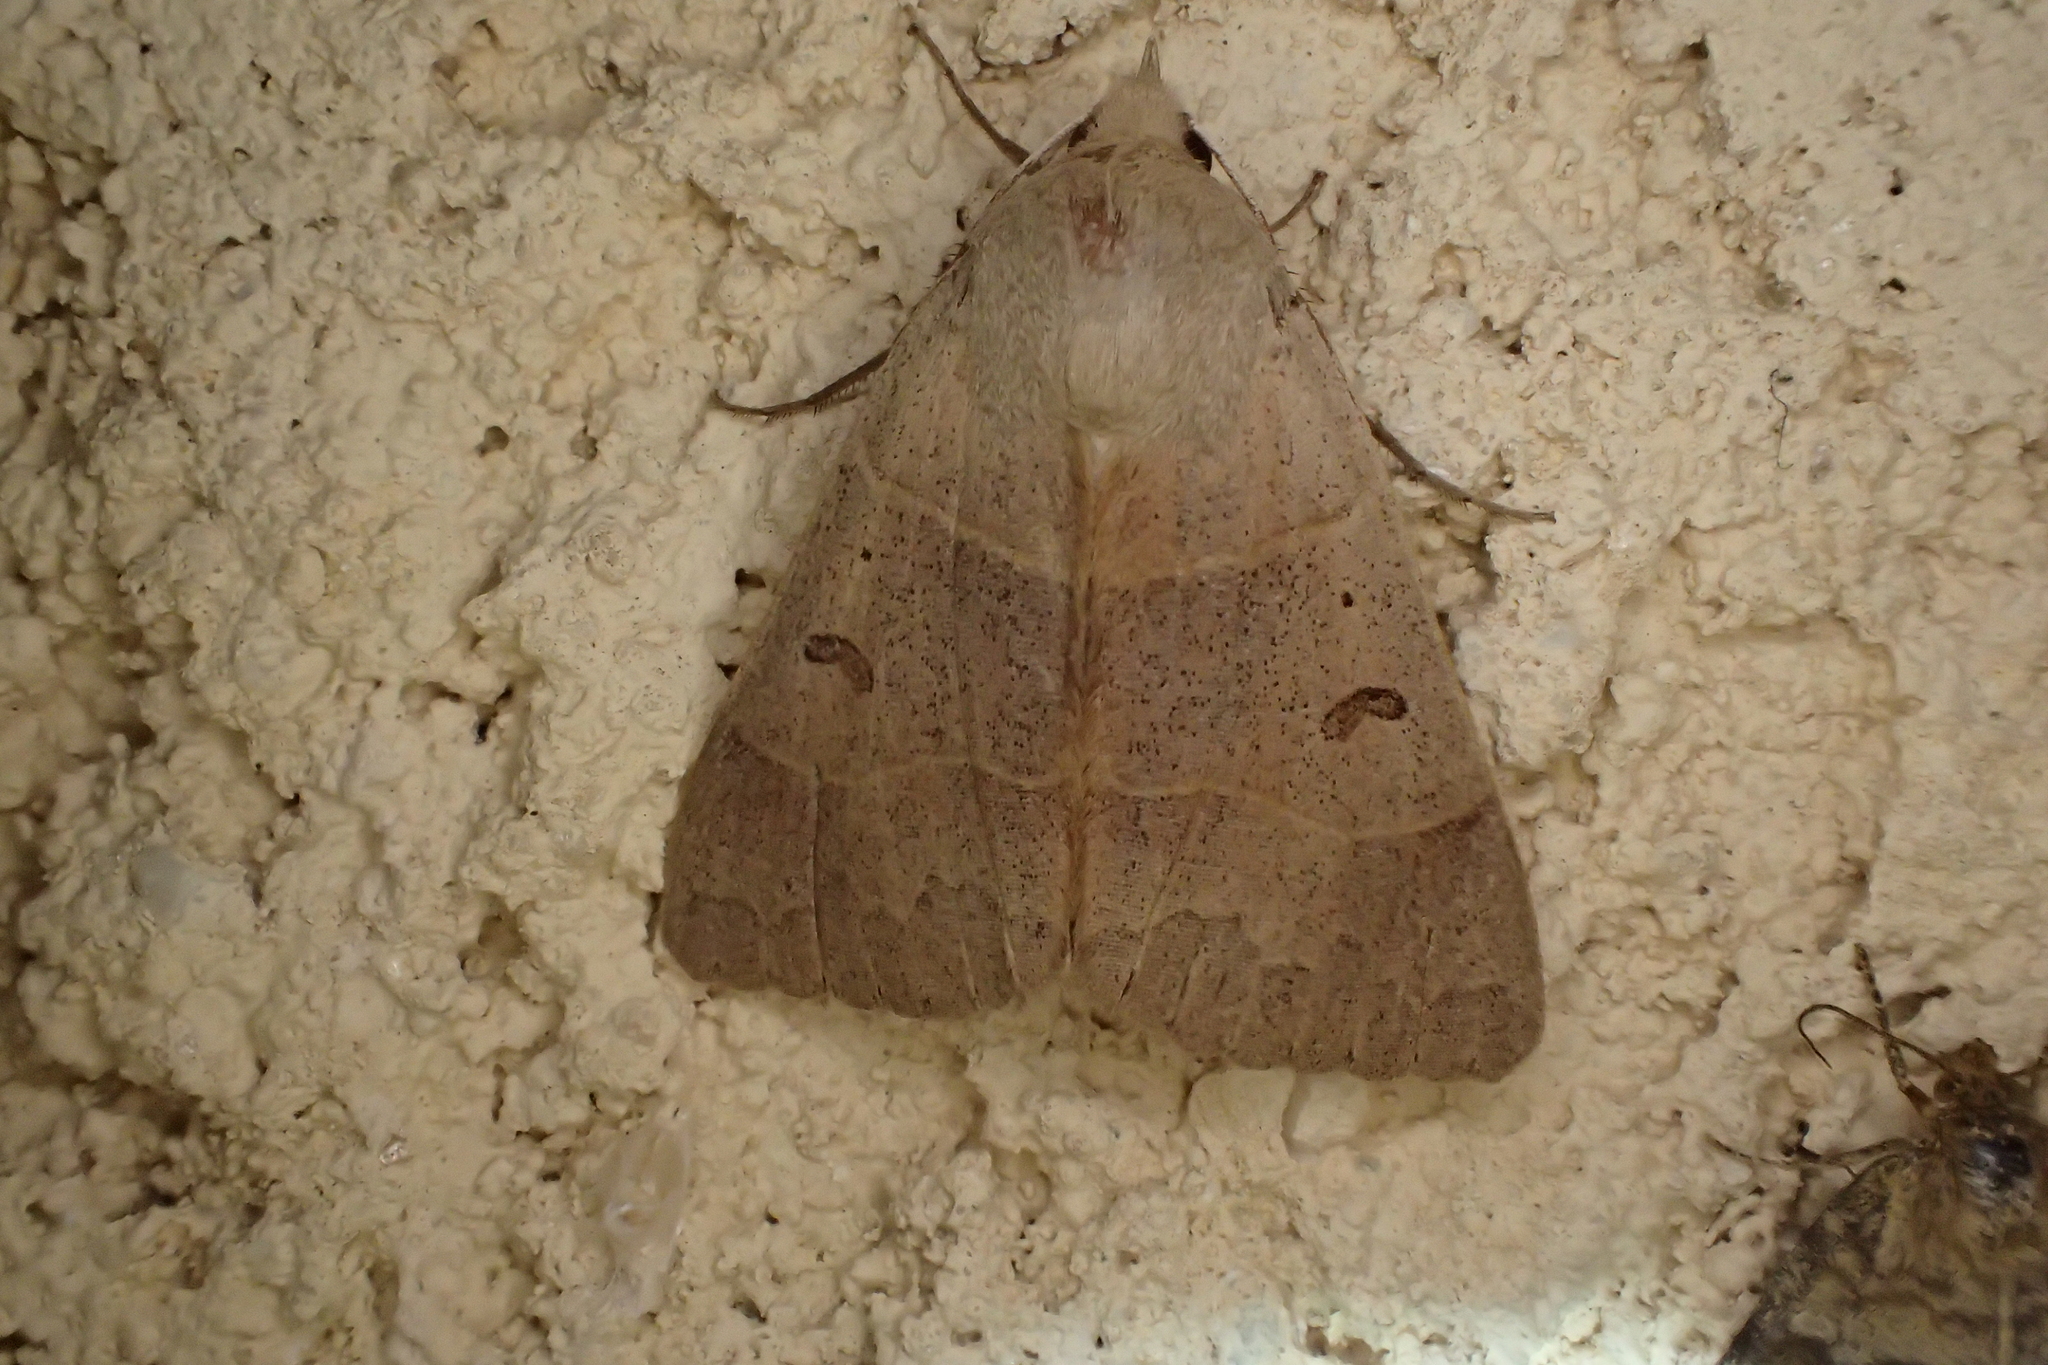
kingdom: Animalia
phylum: Arthropoda
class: Insecta
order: Lepidoptera
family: Erebidae
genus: Minucia
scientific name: Minucia lunaris
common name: Lunar double-stripe
